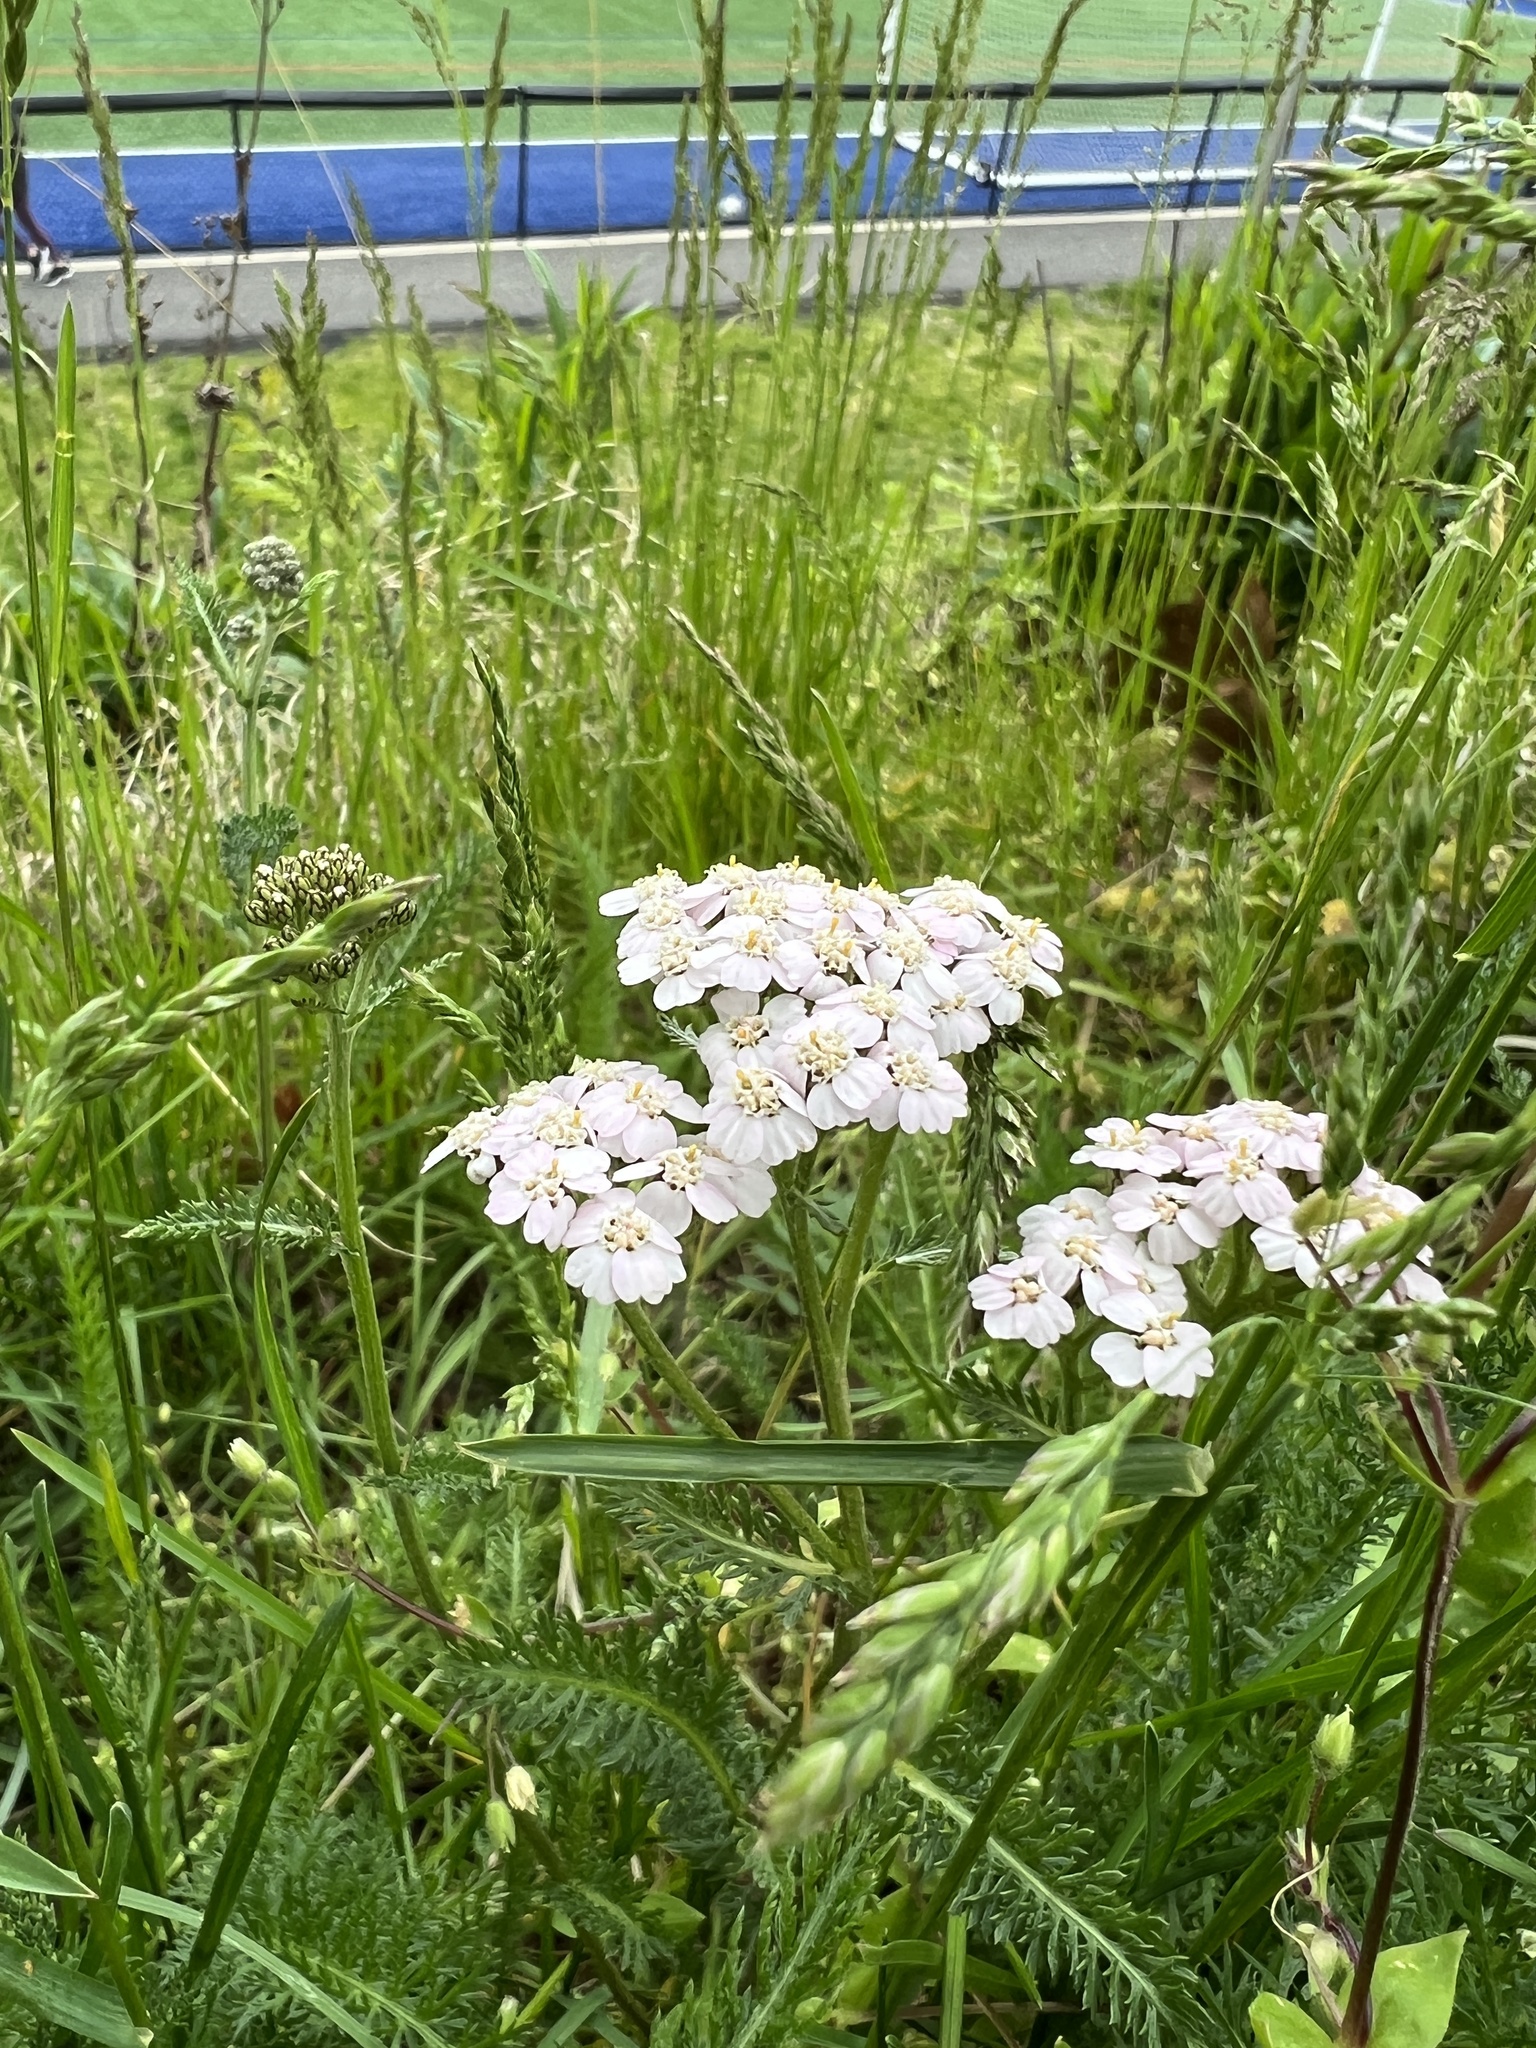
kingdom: Plantae
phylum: Tracheophyta
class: Magnoliopsida
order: Asterales
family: Asteraceae
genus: Achillea
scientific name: Achillea millefolium
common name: Yarrow
